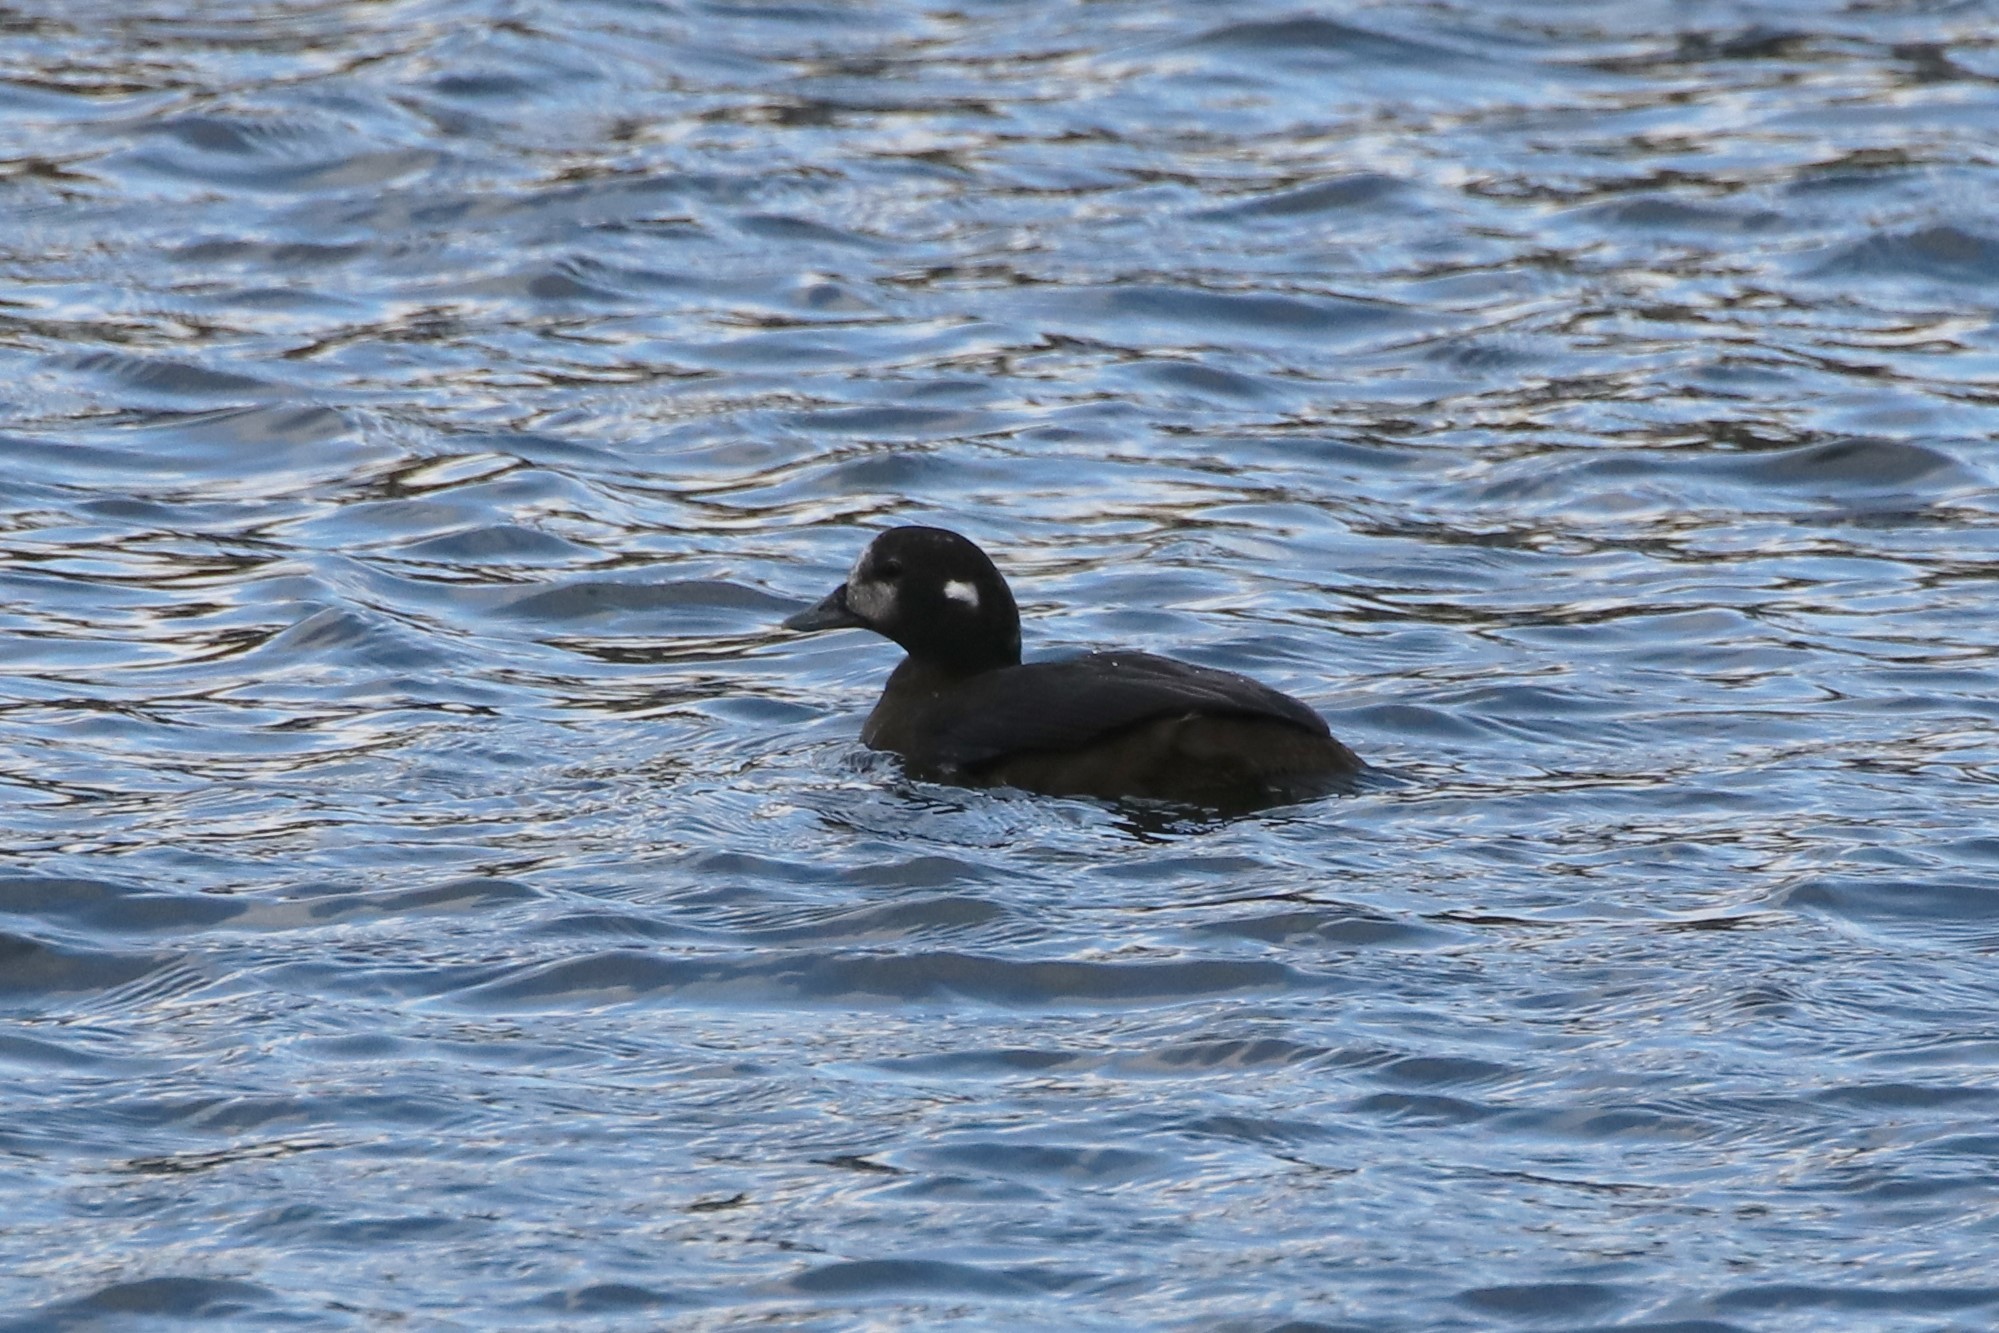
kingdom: Animalia
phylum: Chordata
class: Aves
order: Anseriformes
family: Anatidae
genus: Histrionicus
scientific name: Histrionicus histrionicus
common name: Harlequin duck
